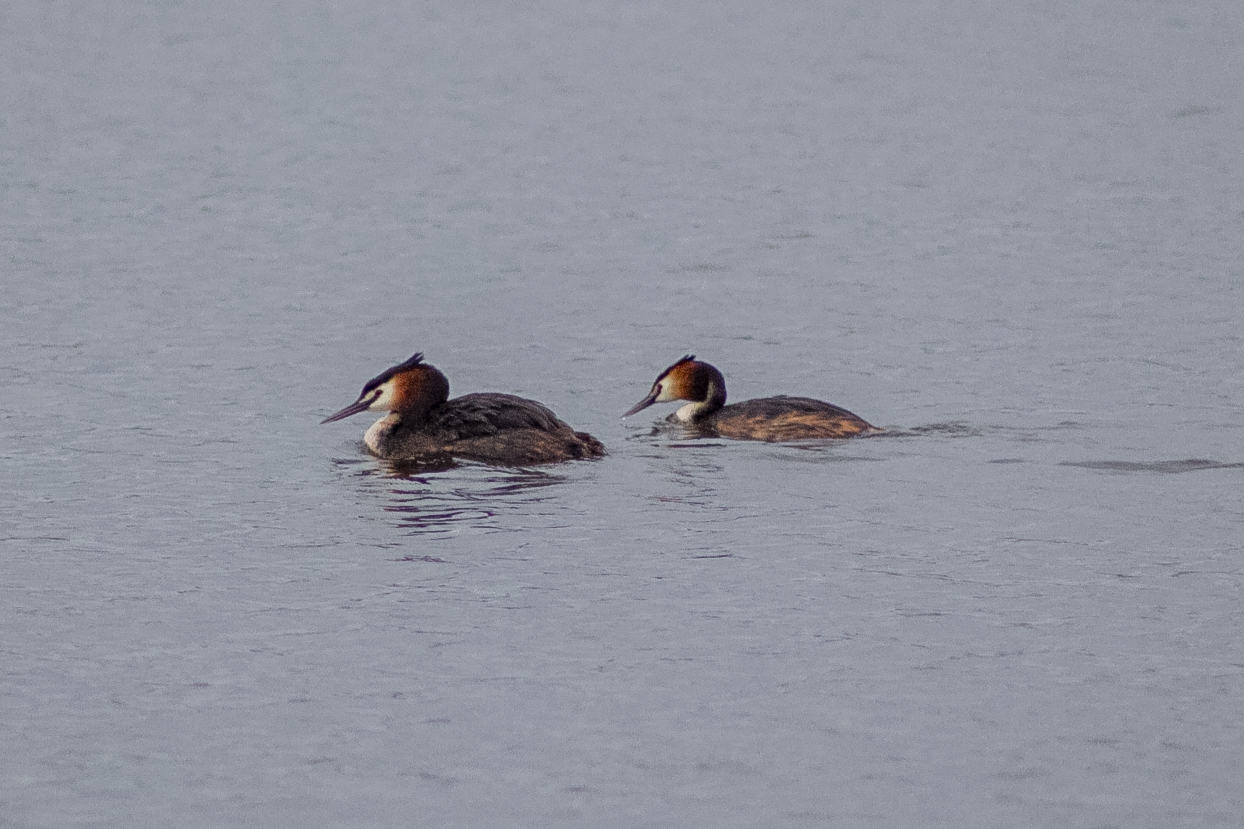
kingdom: Animalia
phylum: Chordata
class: Aves
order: Podicipediformes
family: Podicipedidae
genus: Podiceps
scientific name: Podiceps cristatus
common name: Great crested grebe
